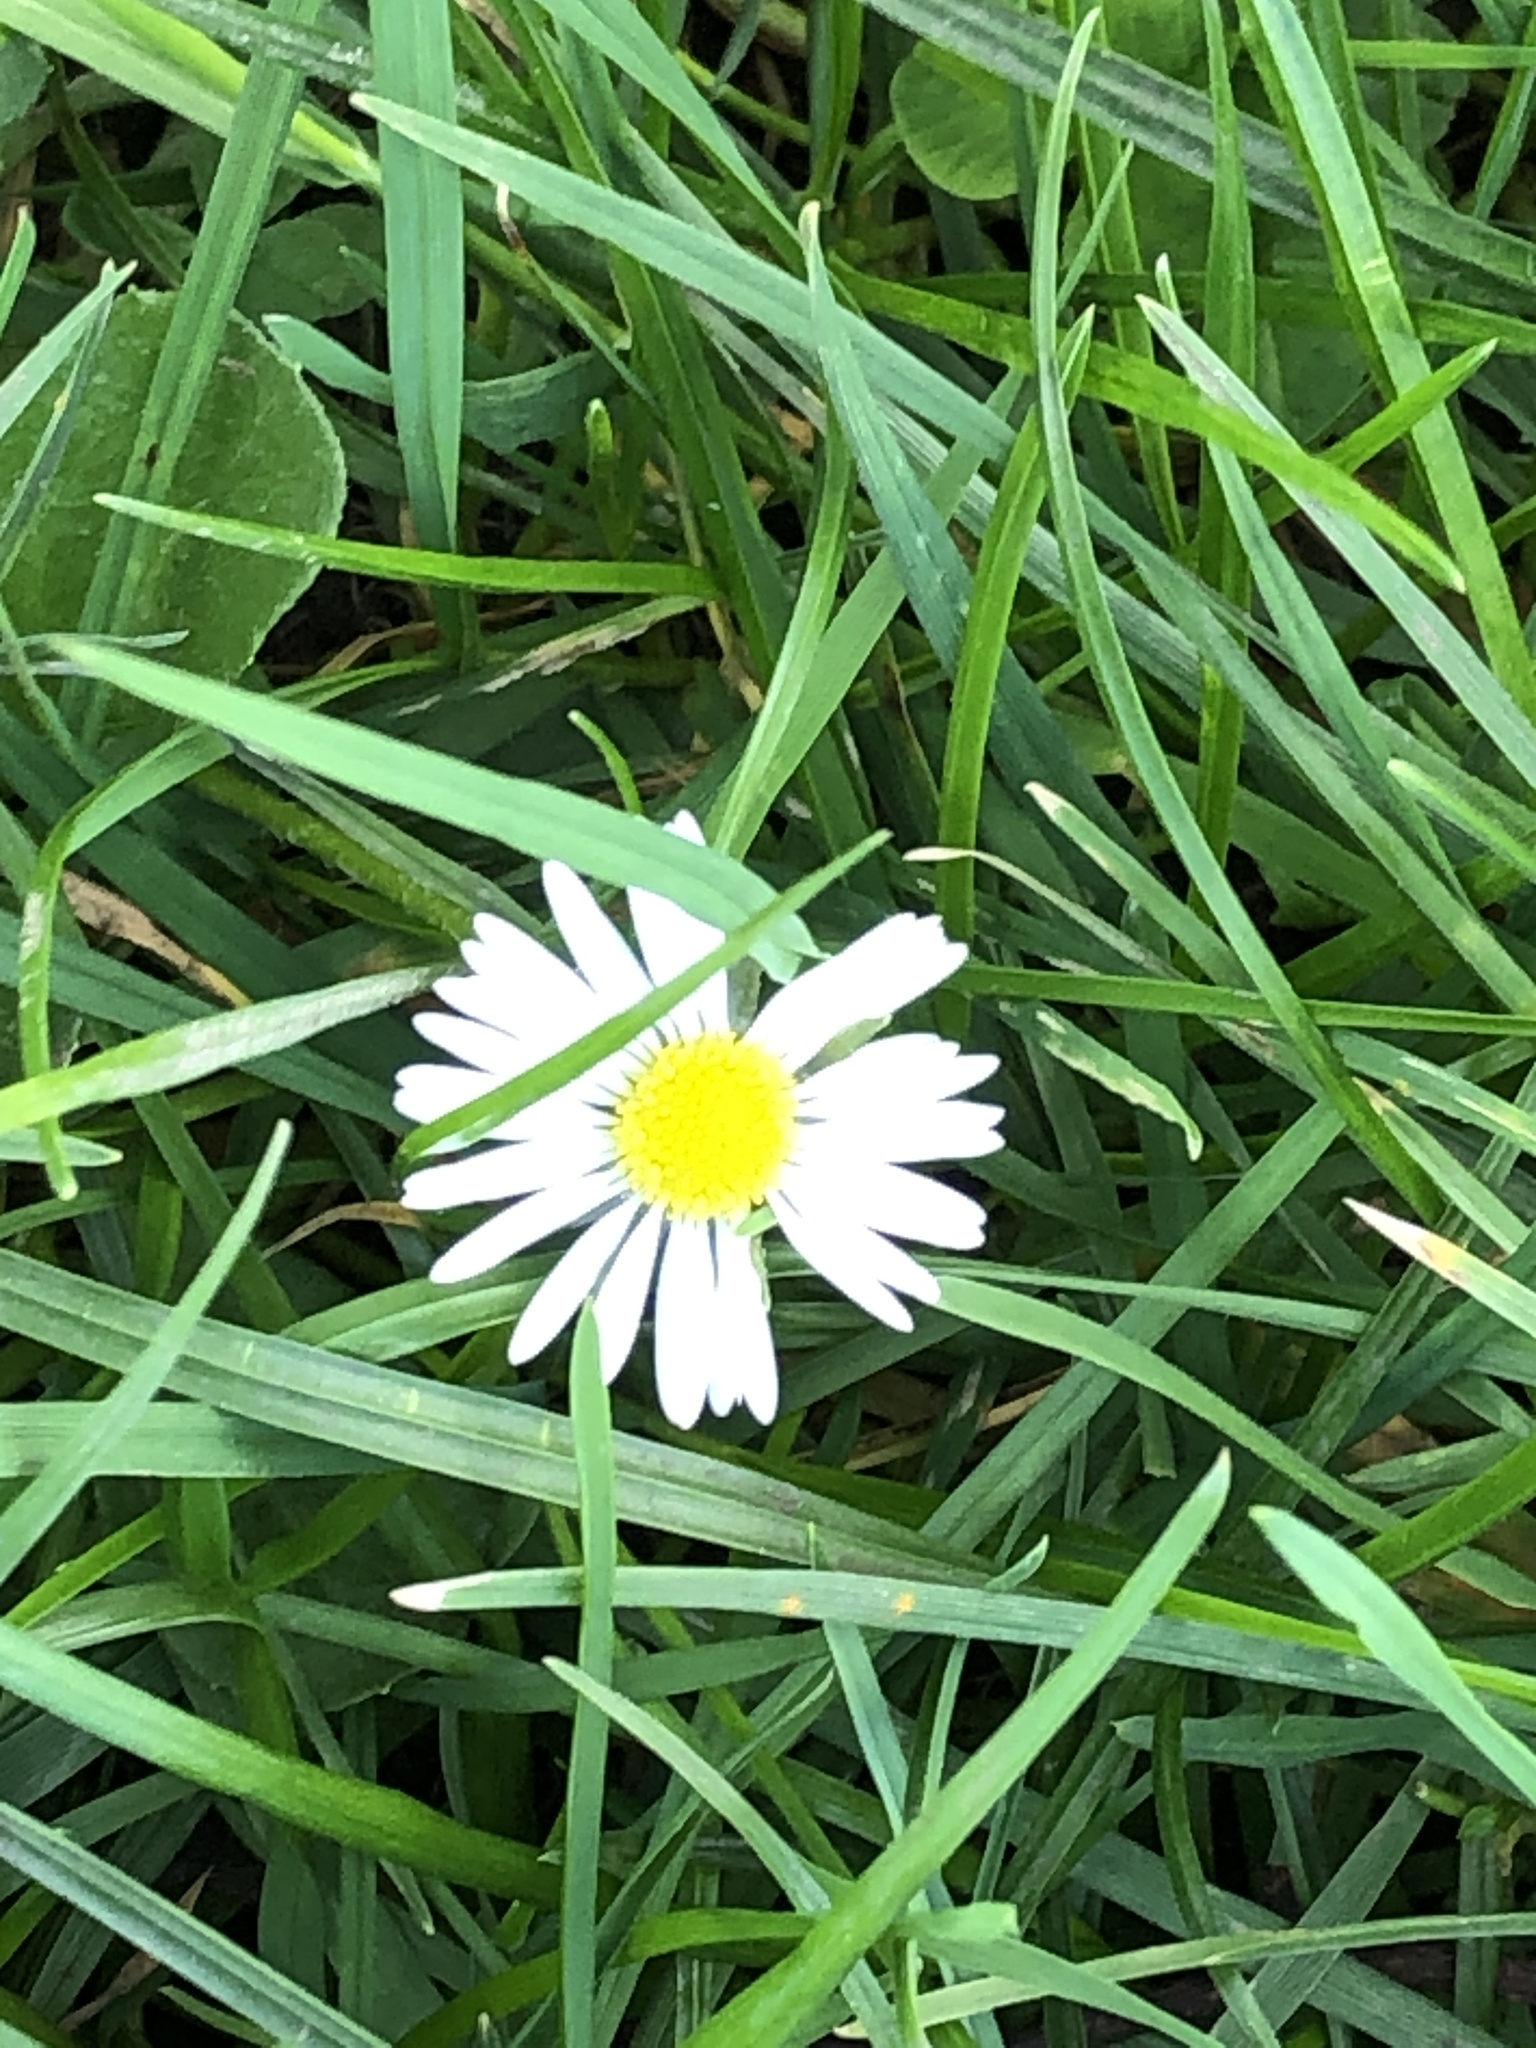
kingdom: Plantae
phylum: Tracheophyta
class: Magnoliopsida
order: Asterales
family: Asteraceae
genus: Bellis
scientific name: Bellis perennis
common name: Lawndaisy
